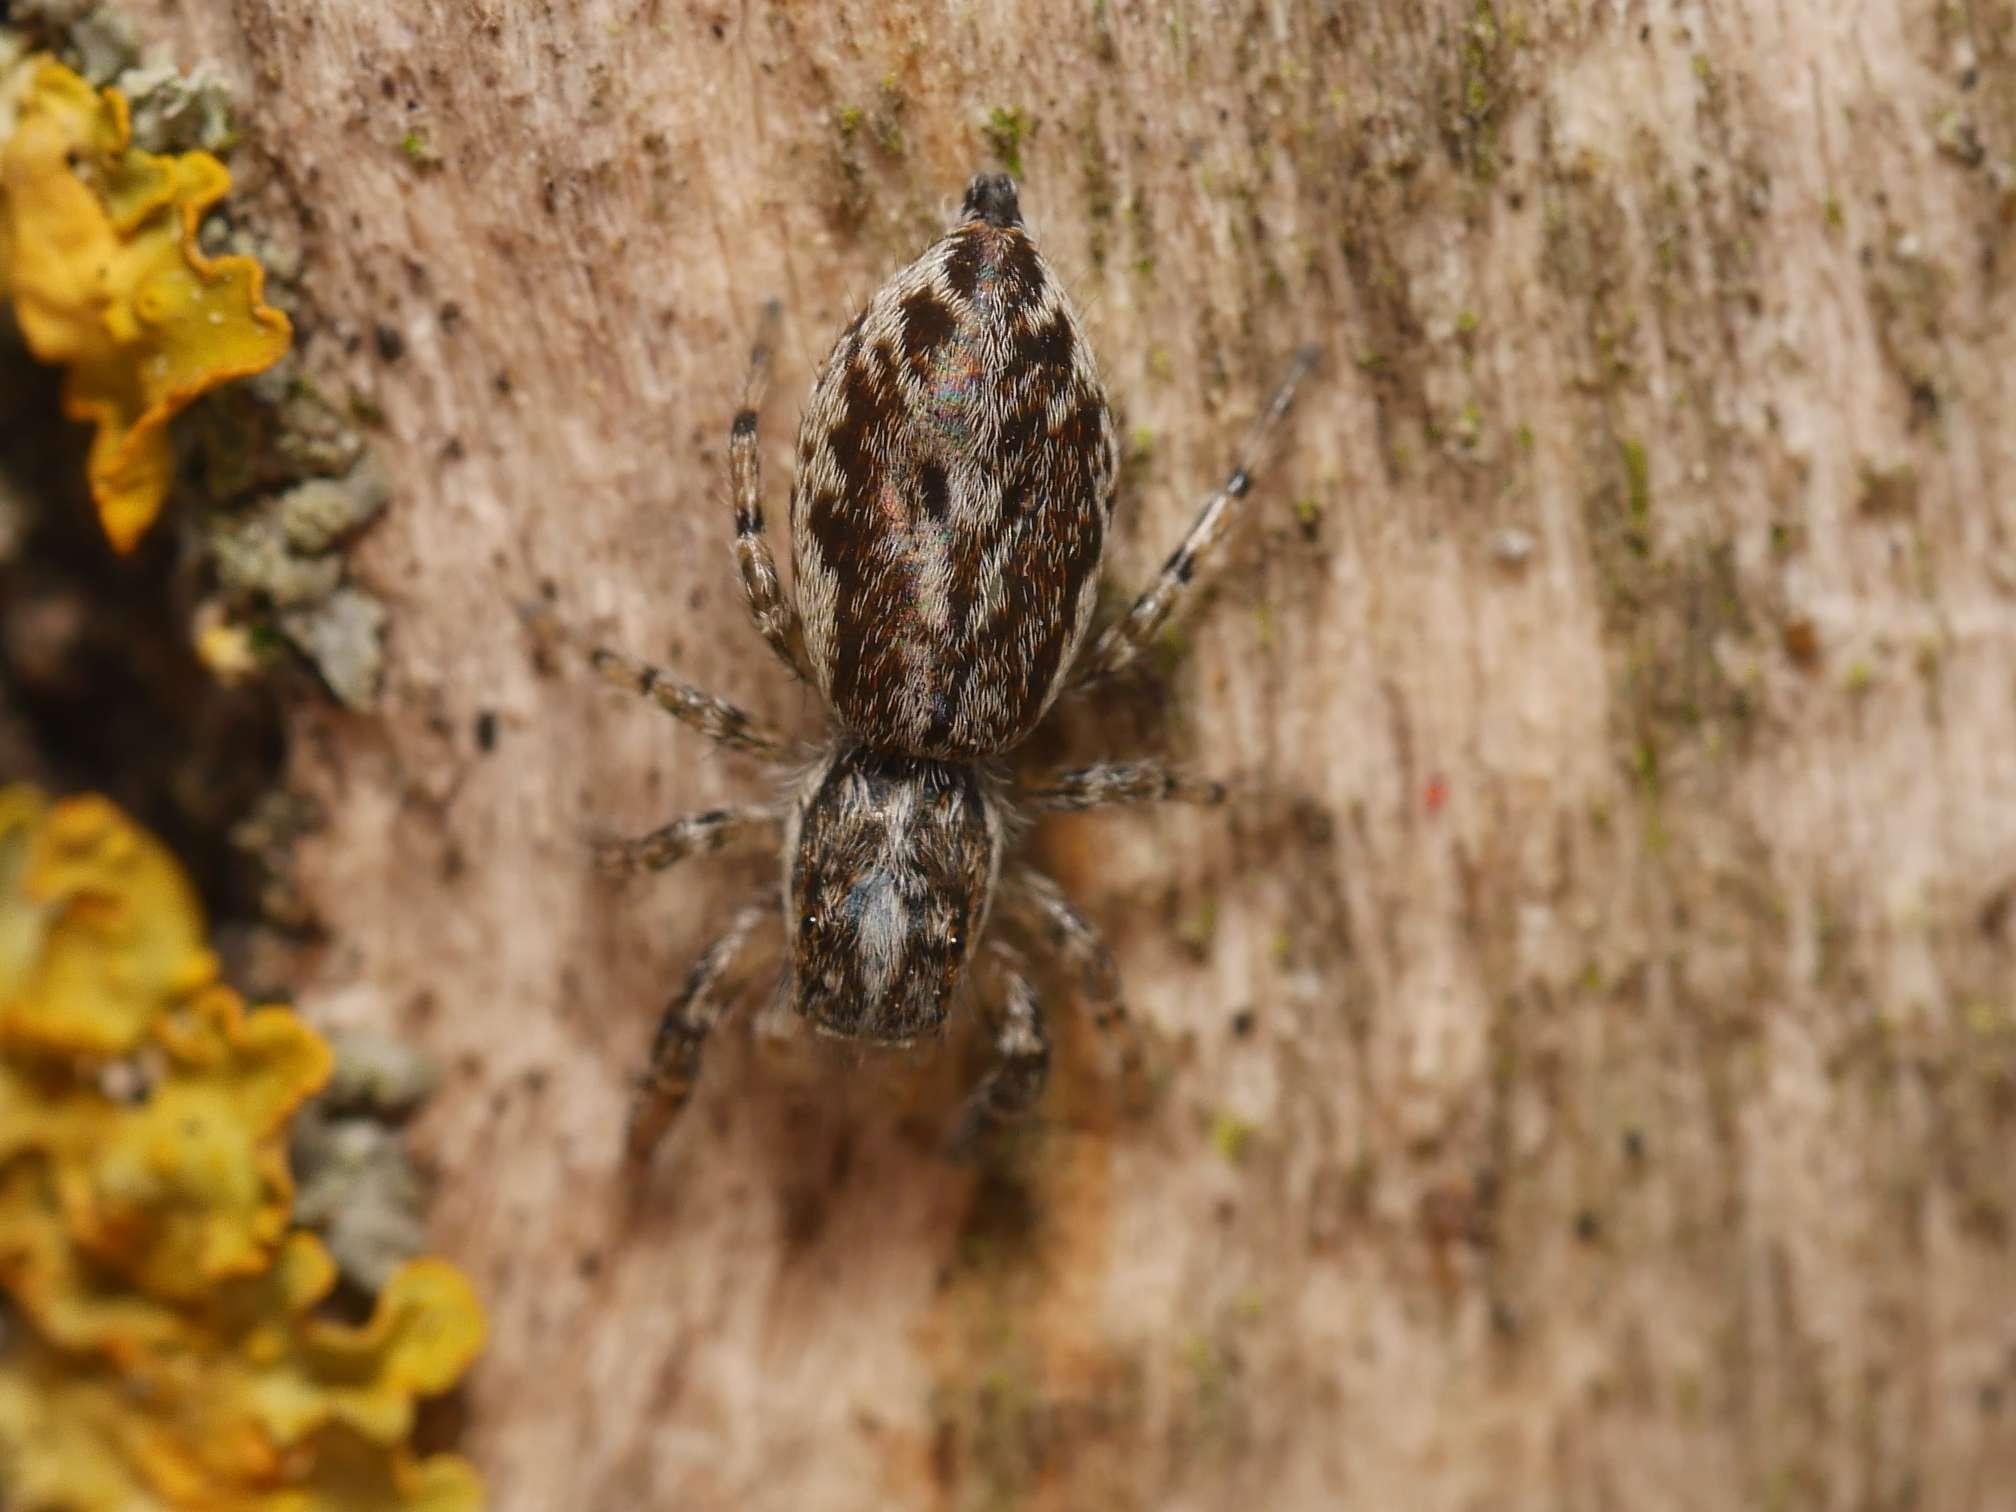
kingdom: Animalia
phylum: Arthropoda
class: Arachnida
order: Araneae
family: Salticidae
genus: Pseudicius
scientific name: Pseudicius encarpatus
